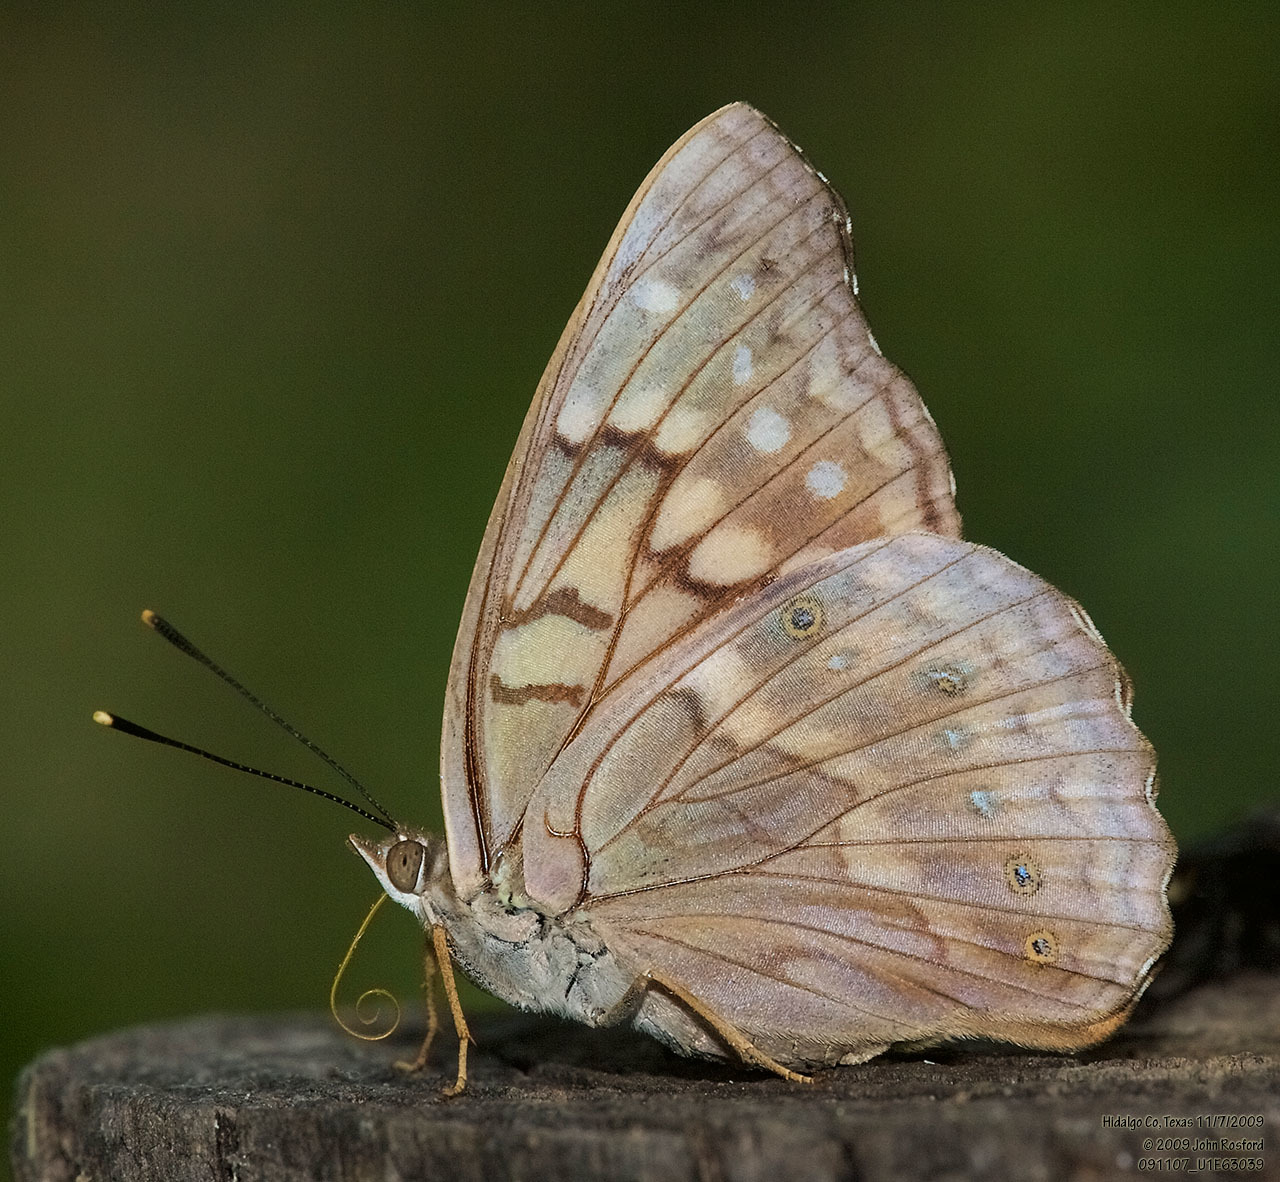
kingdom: Animalia
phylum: Arthropoda
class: Insecta
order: Lepidoptera
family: Nymphalidae
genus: Asterocampa
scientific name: Asterocampa clyton
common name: Tawny emperor
